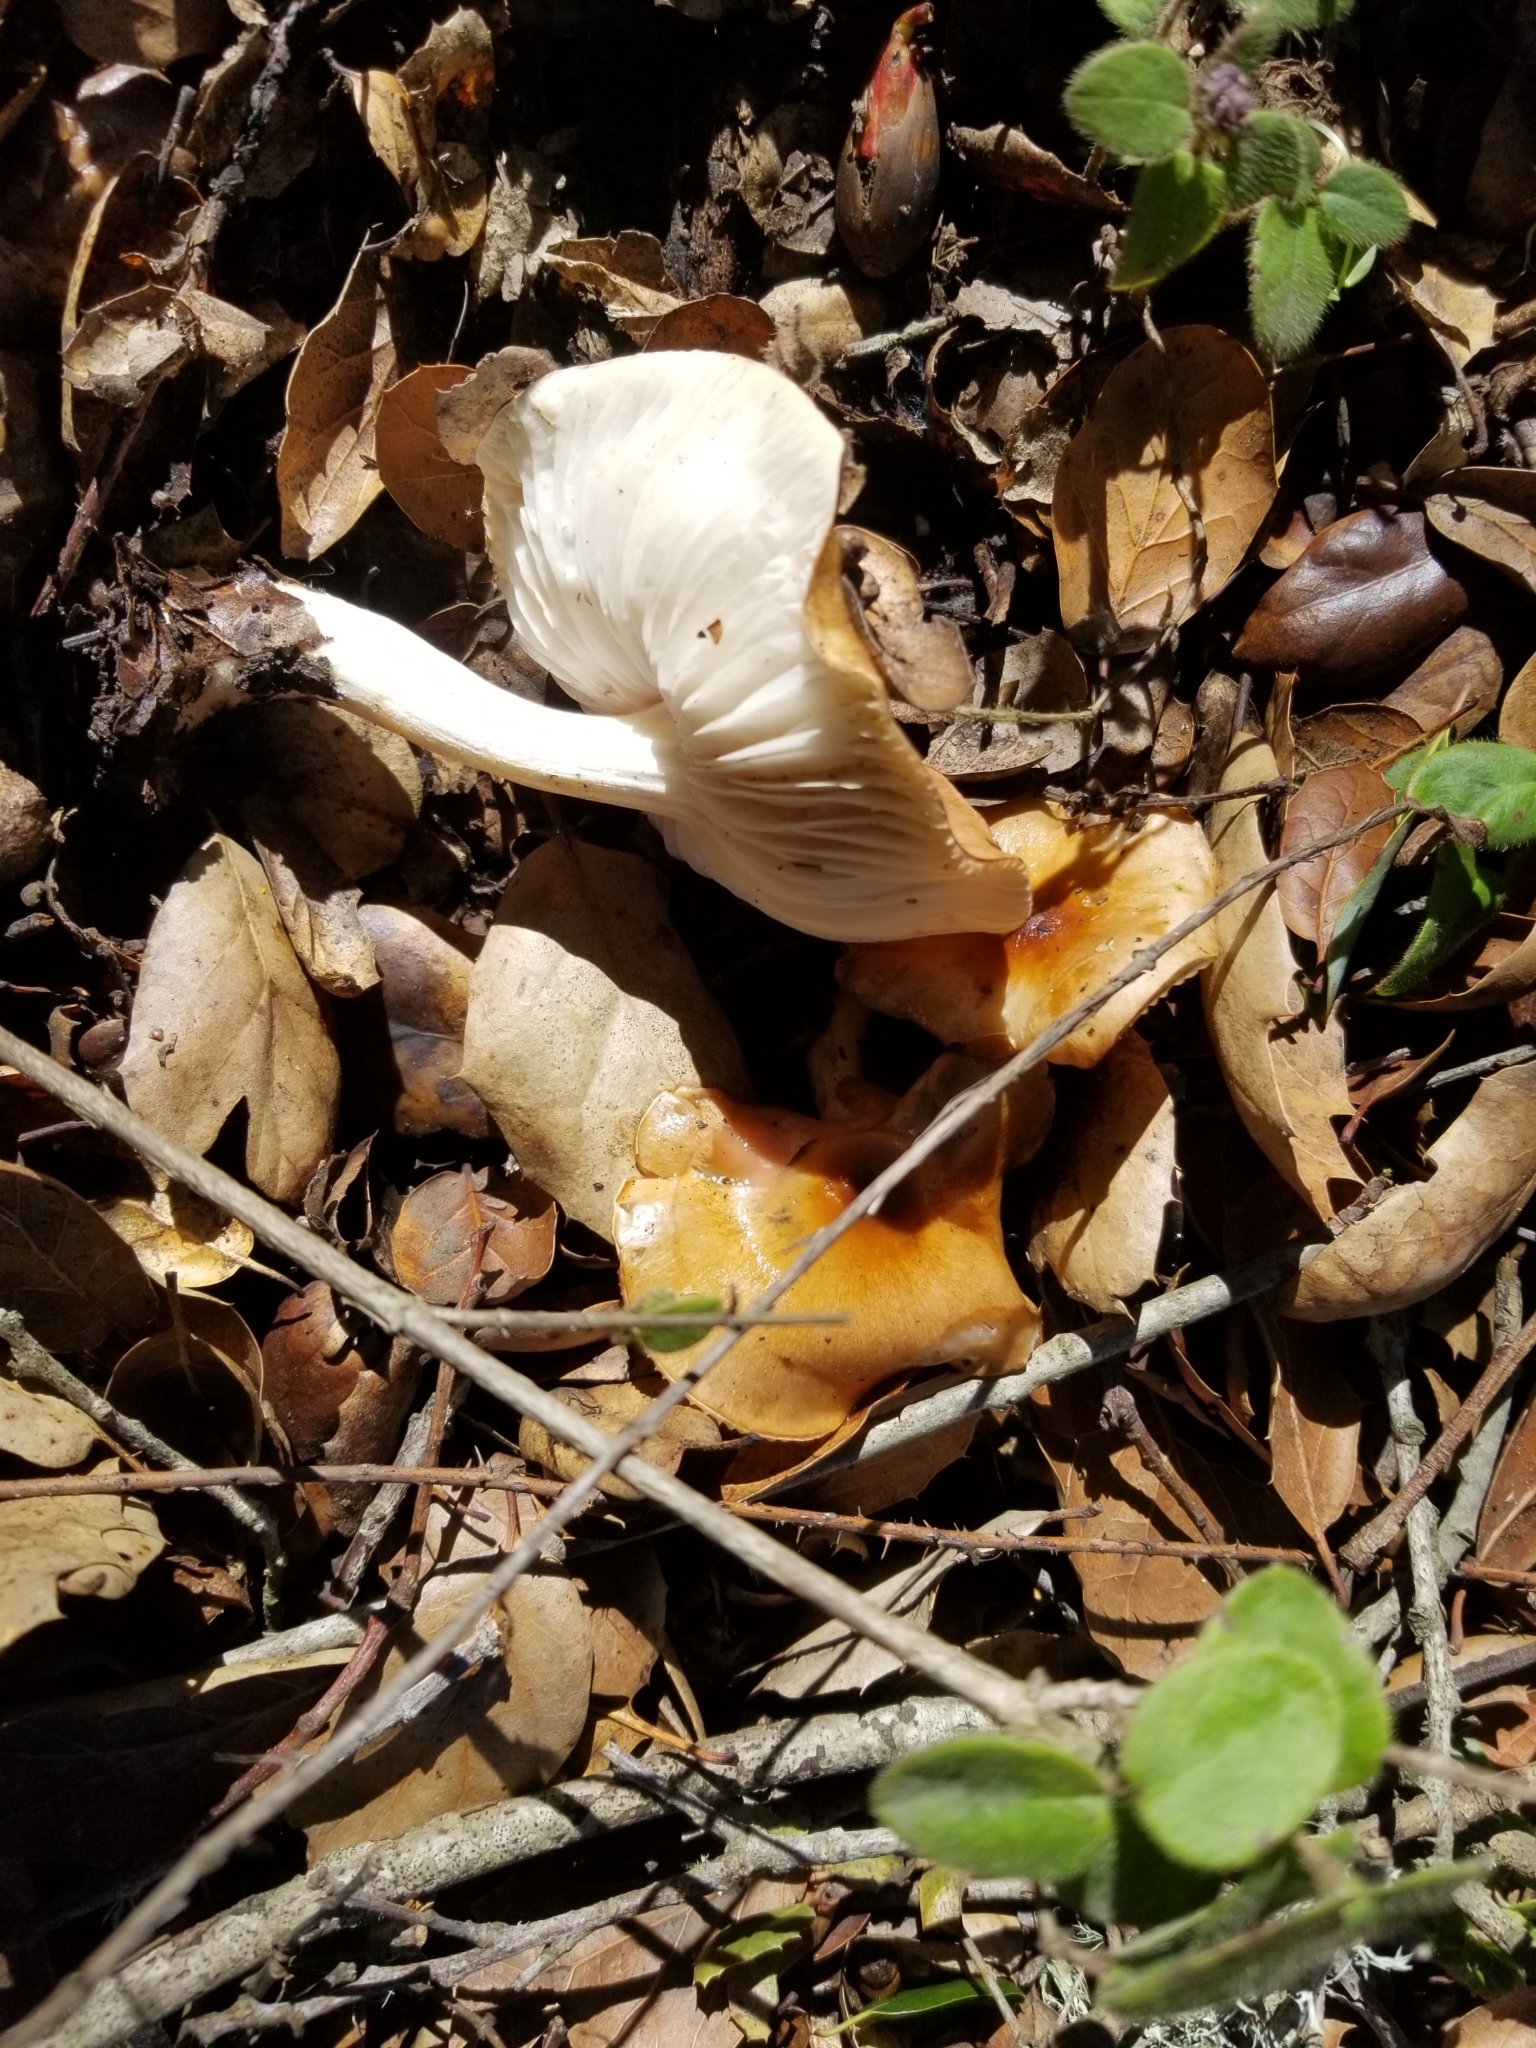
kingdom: Fungi
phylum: Basidiomycota
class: Agaricomycetes
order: Agaricales
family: Hygrophoraceae
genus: Hygrophorus
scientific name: Hygrophorus roseobrunneus
